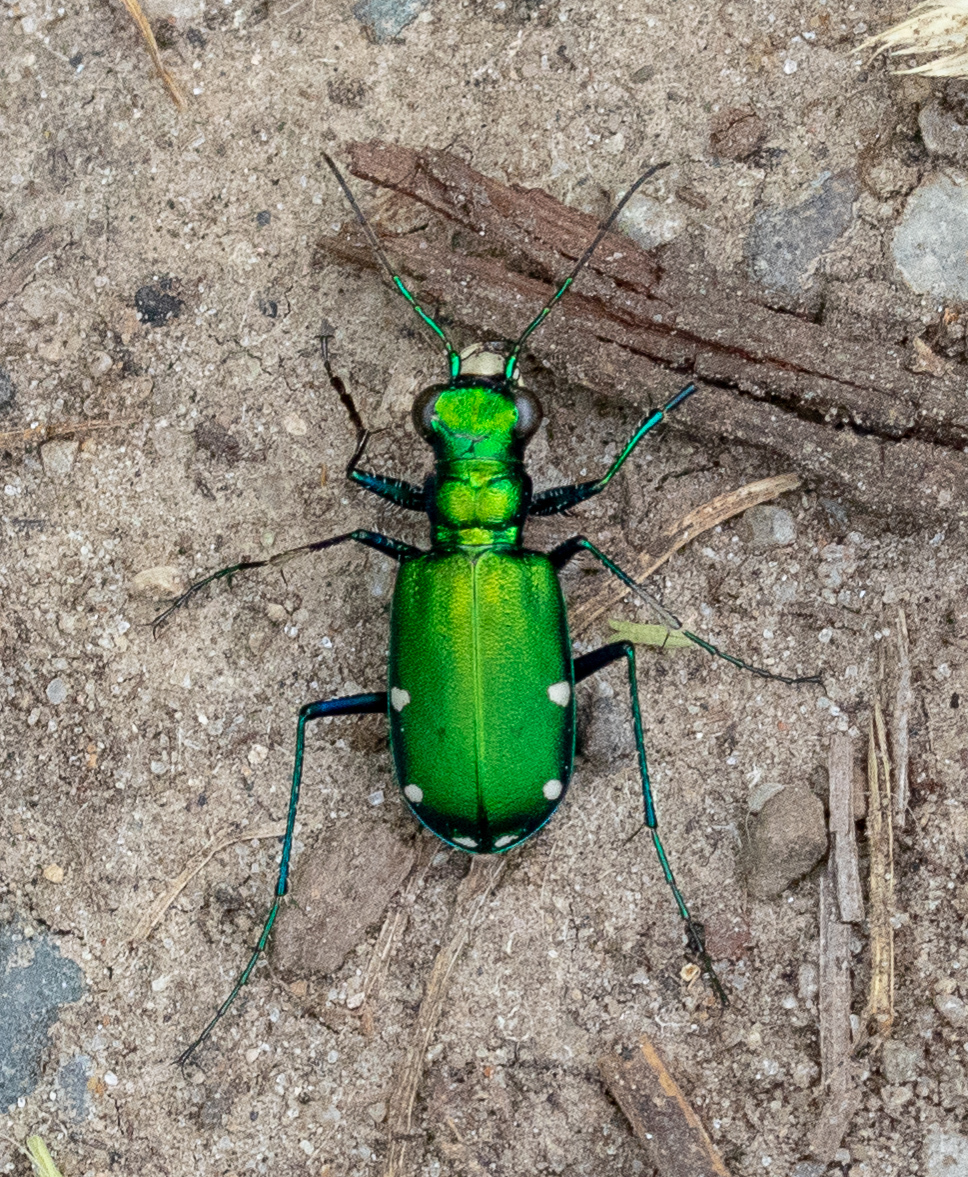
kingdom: Animalia
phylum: Arthropoda
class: Insecta
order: Coleoptera
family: Carabidae
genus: Cicindela
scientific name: Cicindela sexguttata
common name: Six-spotted tiger beetle
